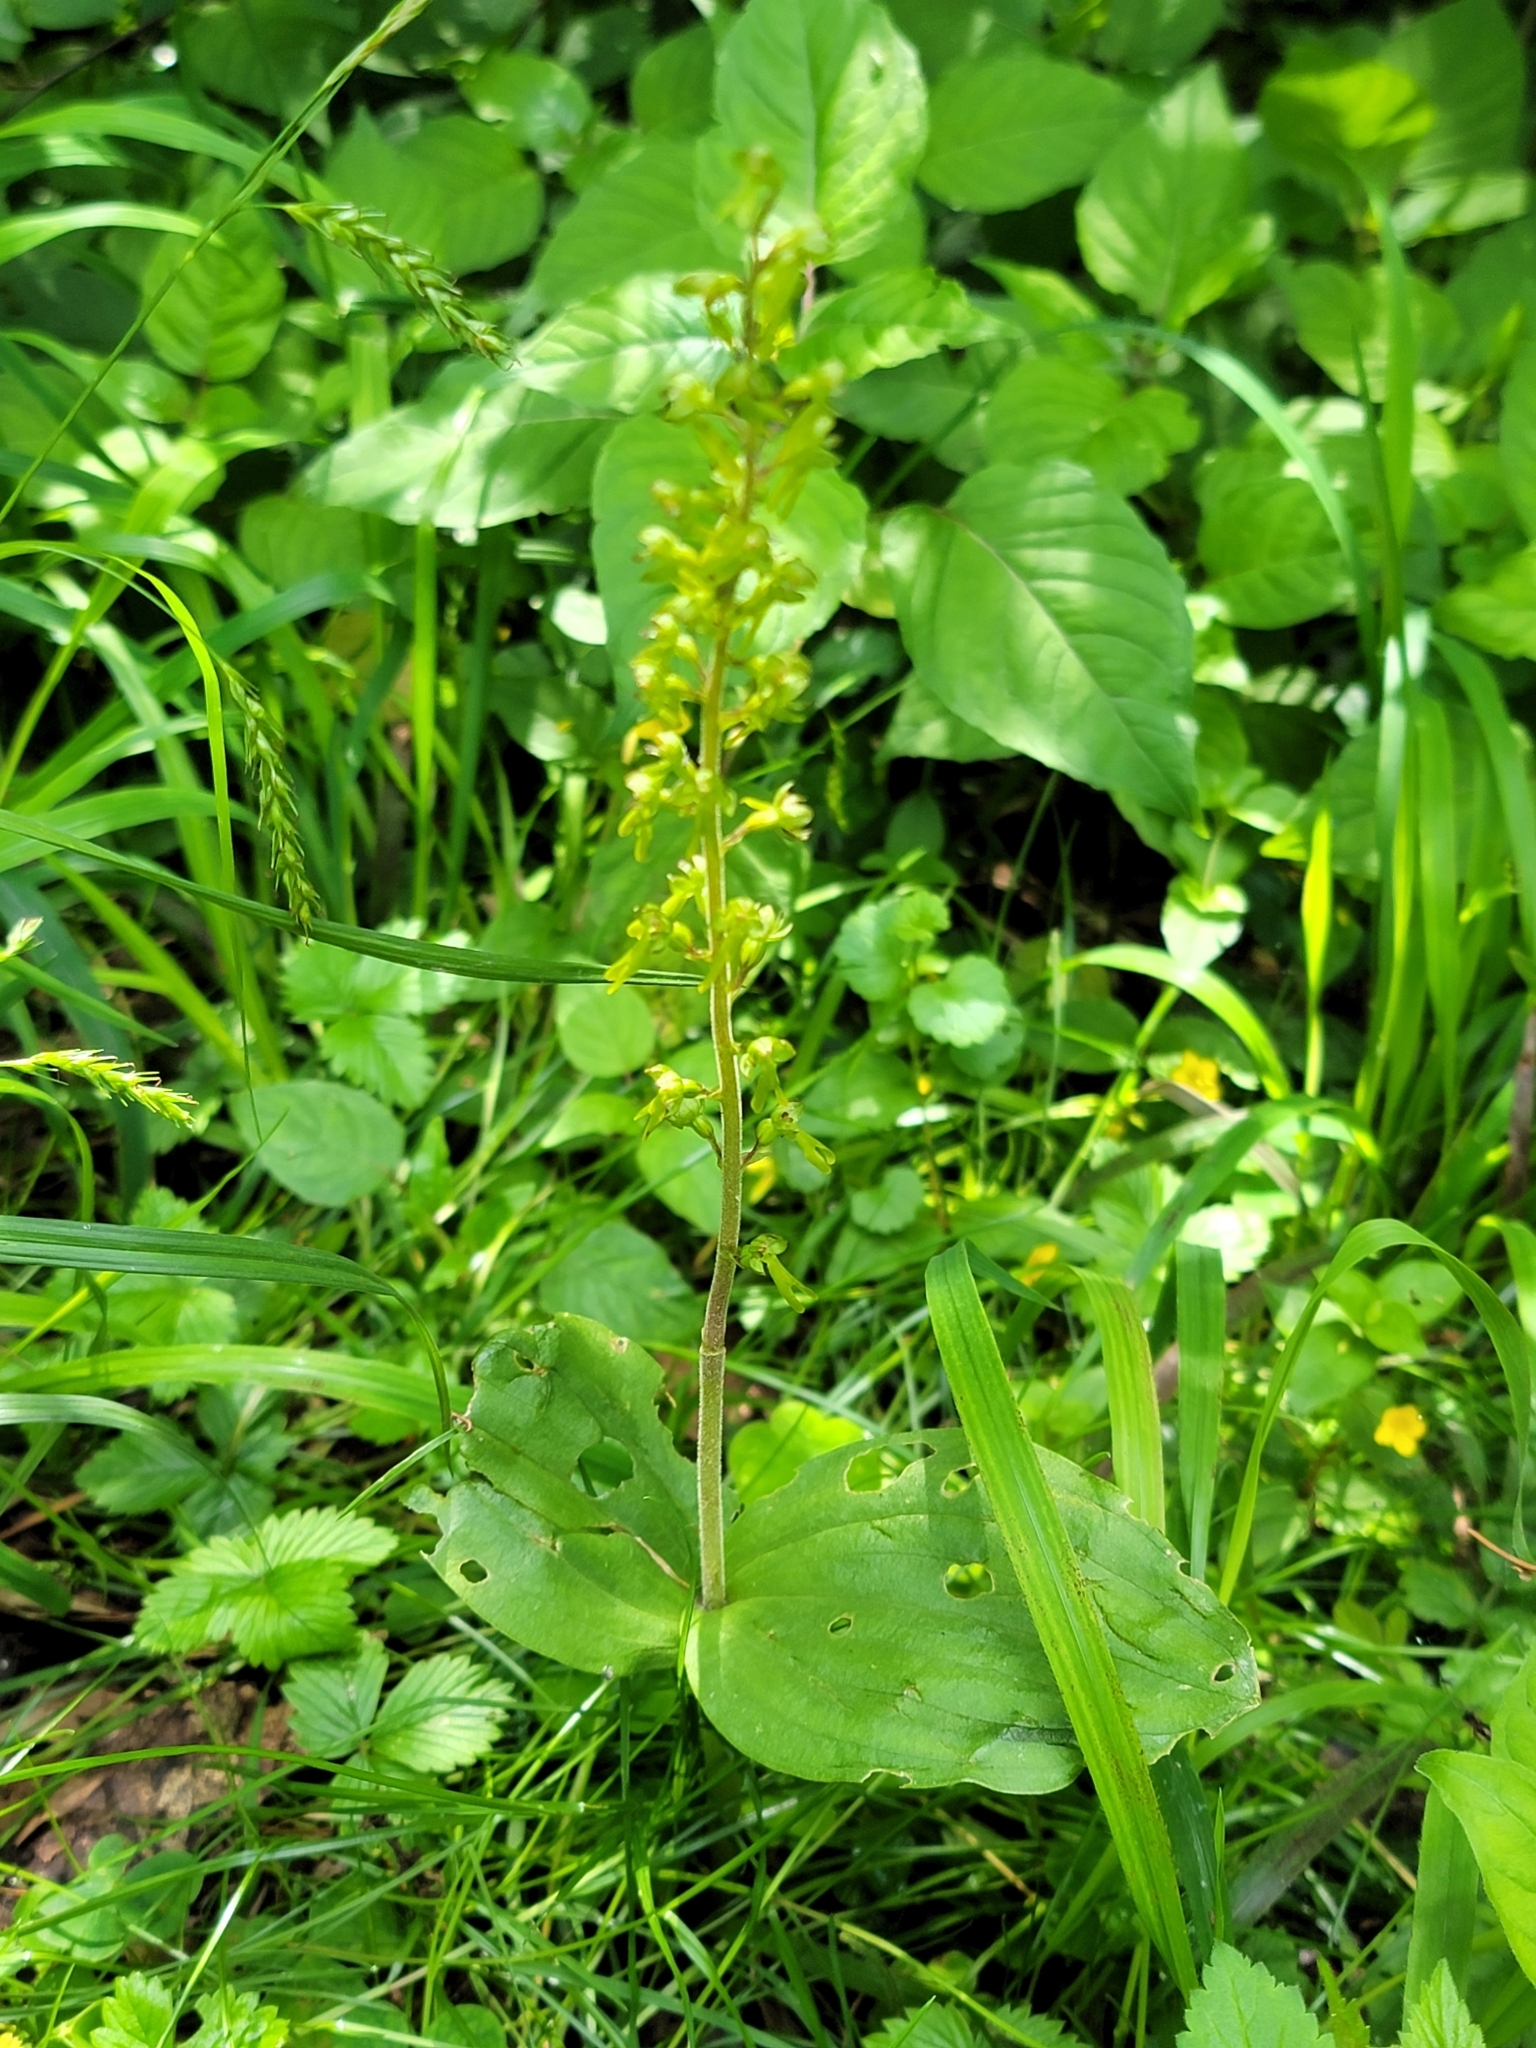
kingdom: Plantae
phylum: Tracheophyta
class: Liliopsida
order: Asparagales
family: Orchidaceae
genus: Neottia
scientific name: Neottia ovata
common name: Common twayblade
